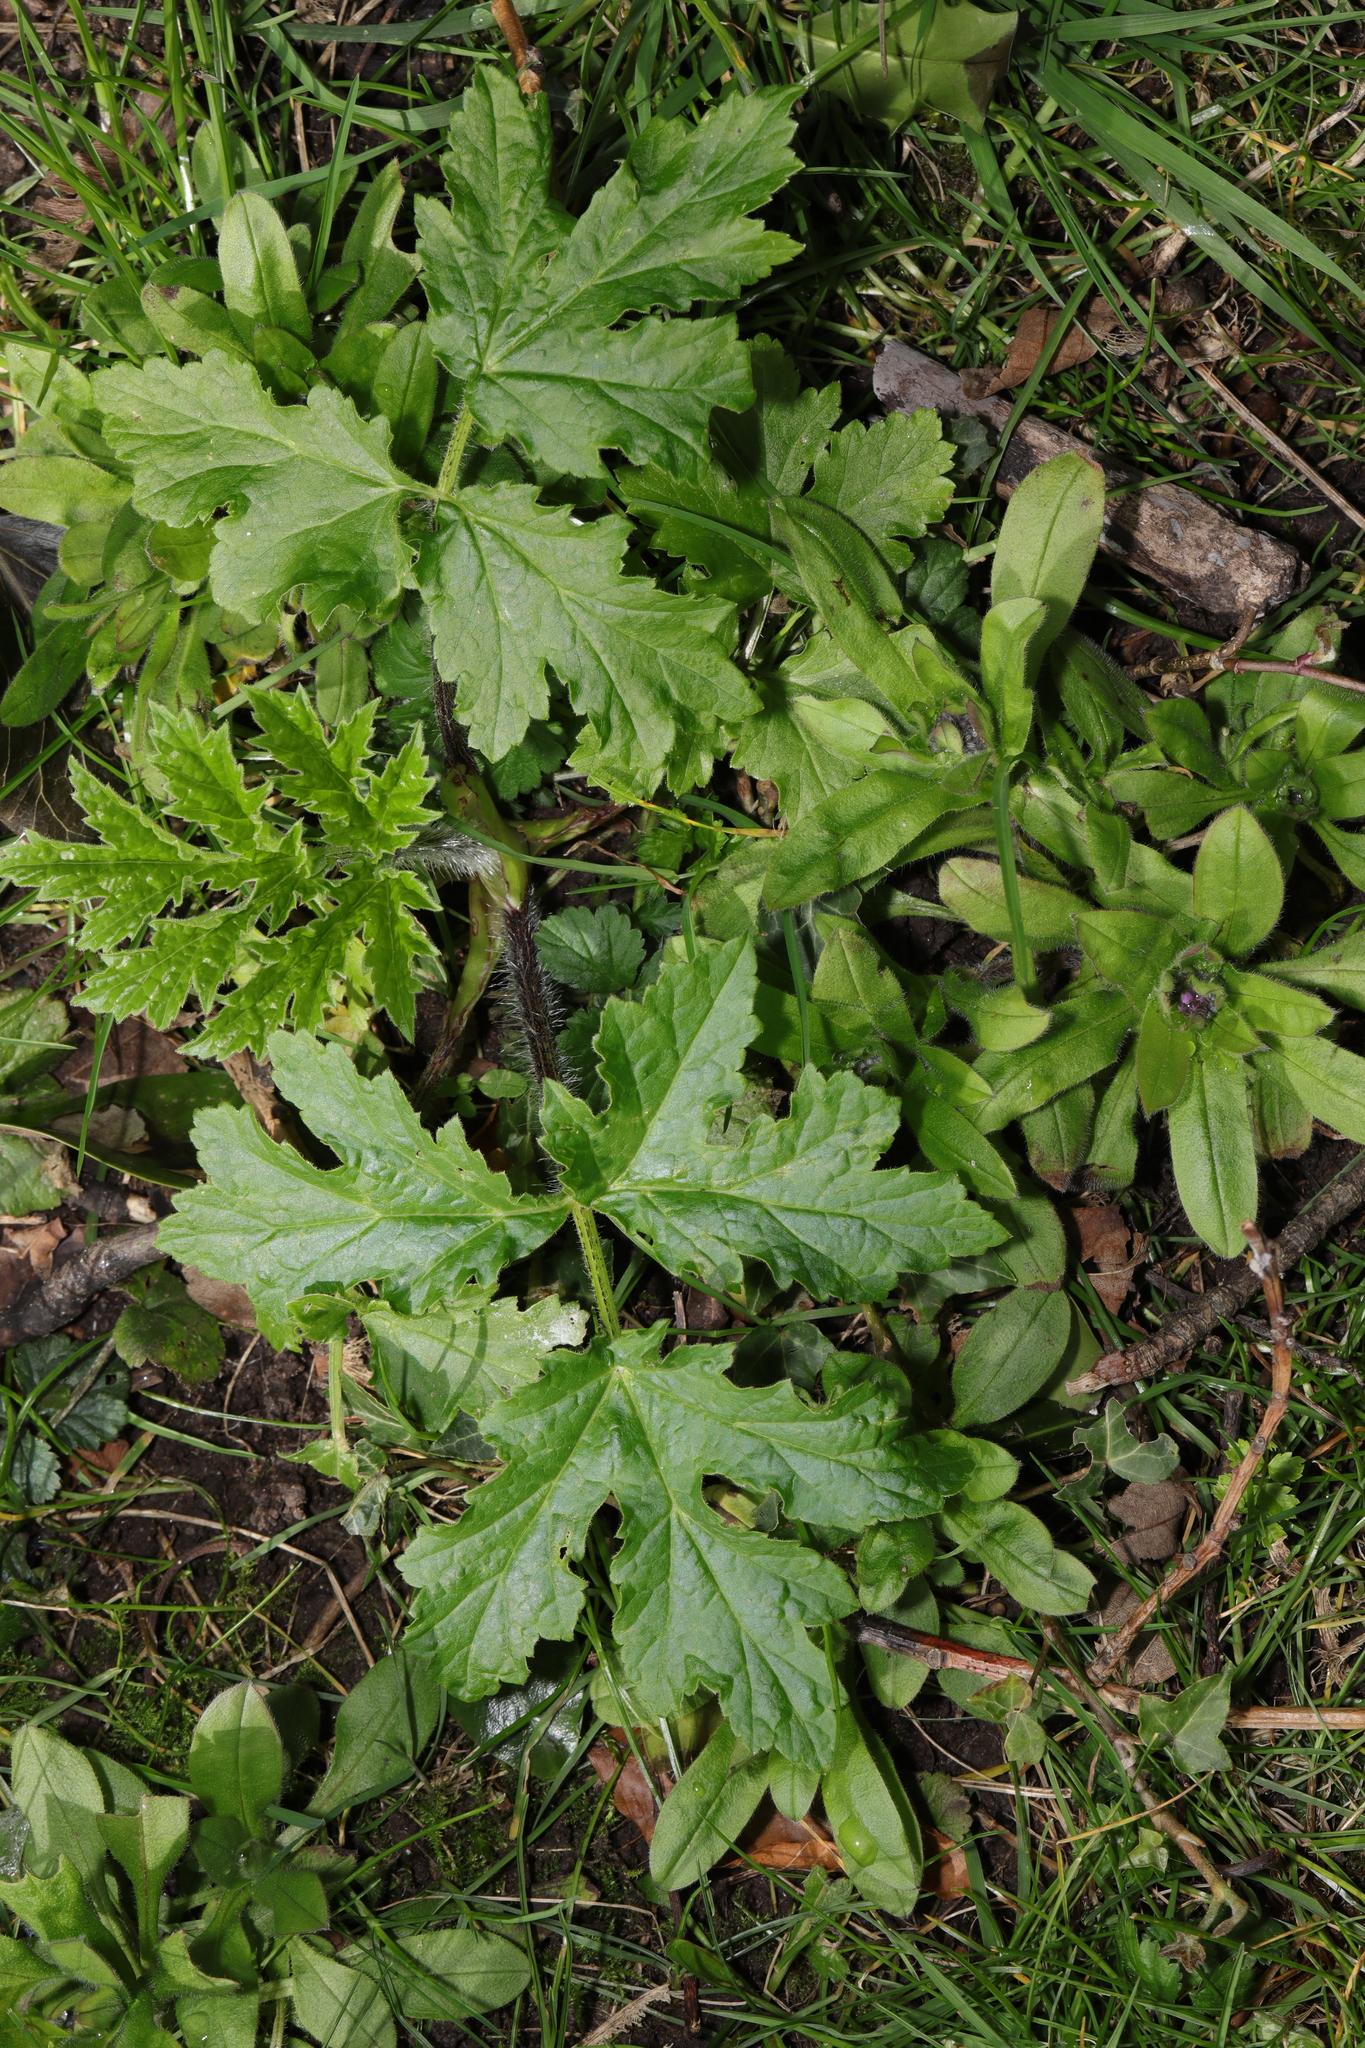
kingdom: Plantae
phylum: Tracheophyta
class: Magnoliopsida
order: Apiales
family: Apiaceae
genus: Heracleum
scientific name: Heracleum sphondylium
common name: Hogweed
